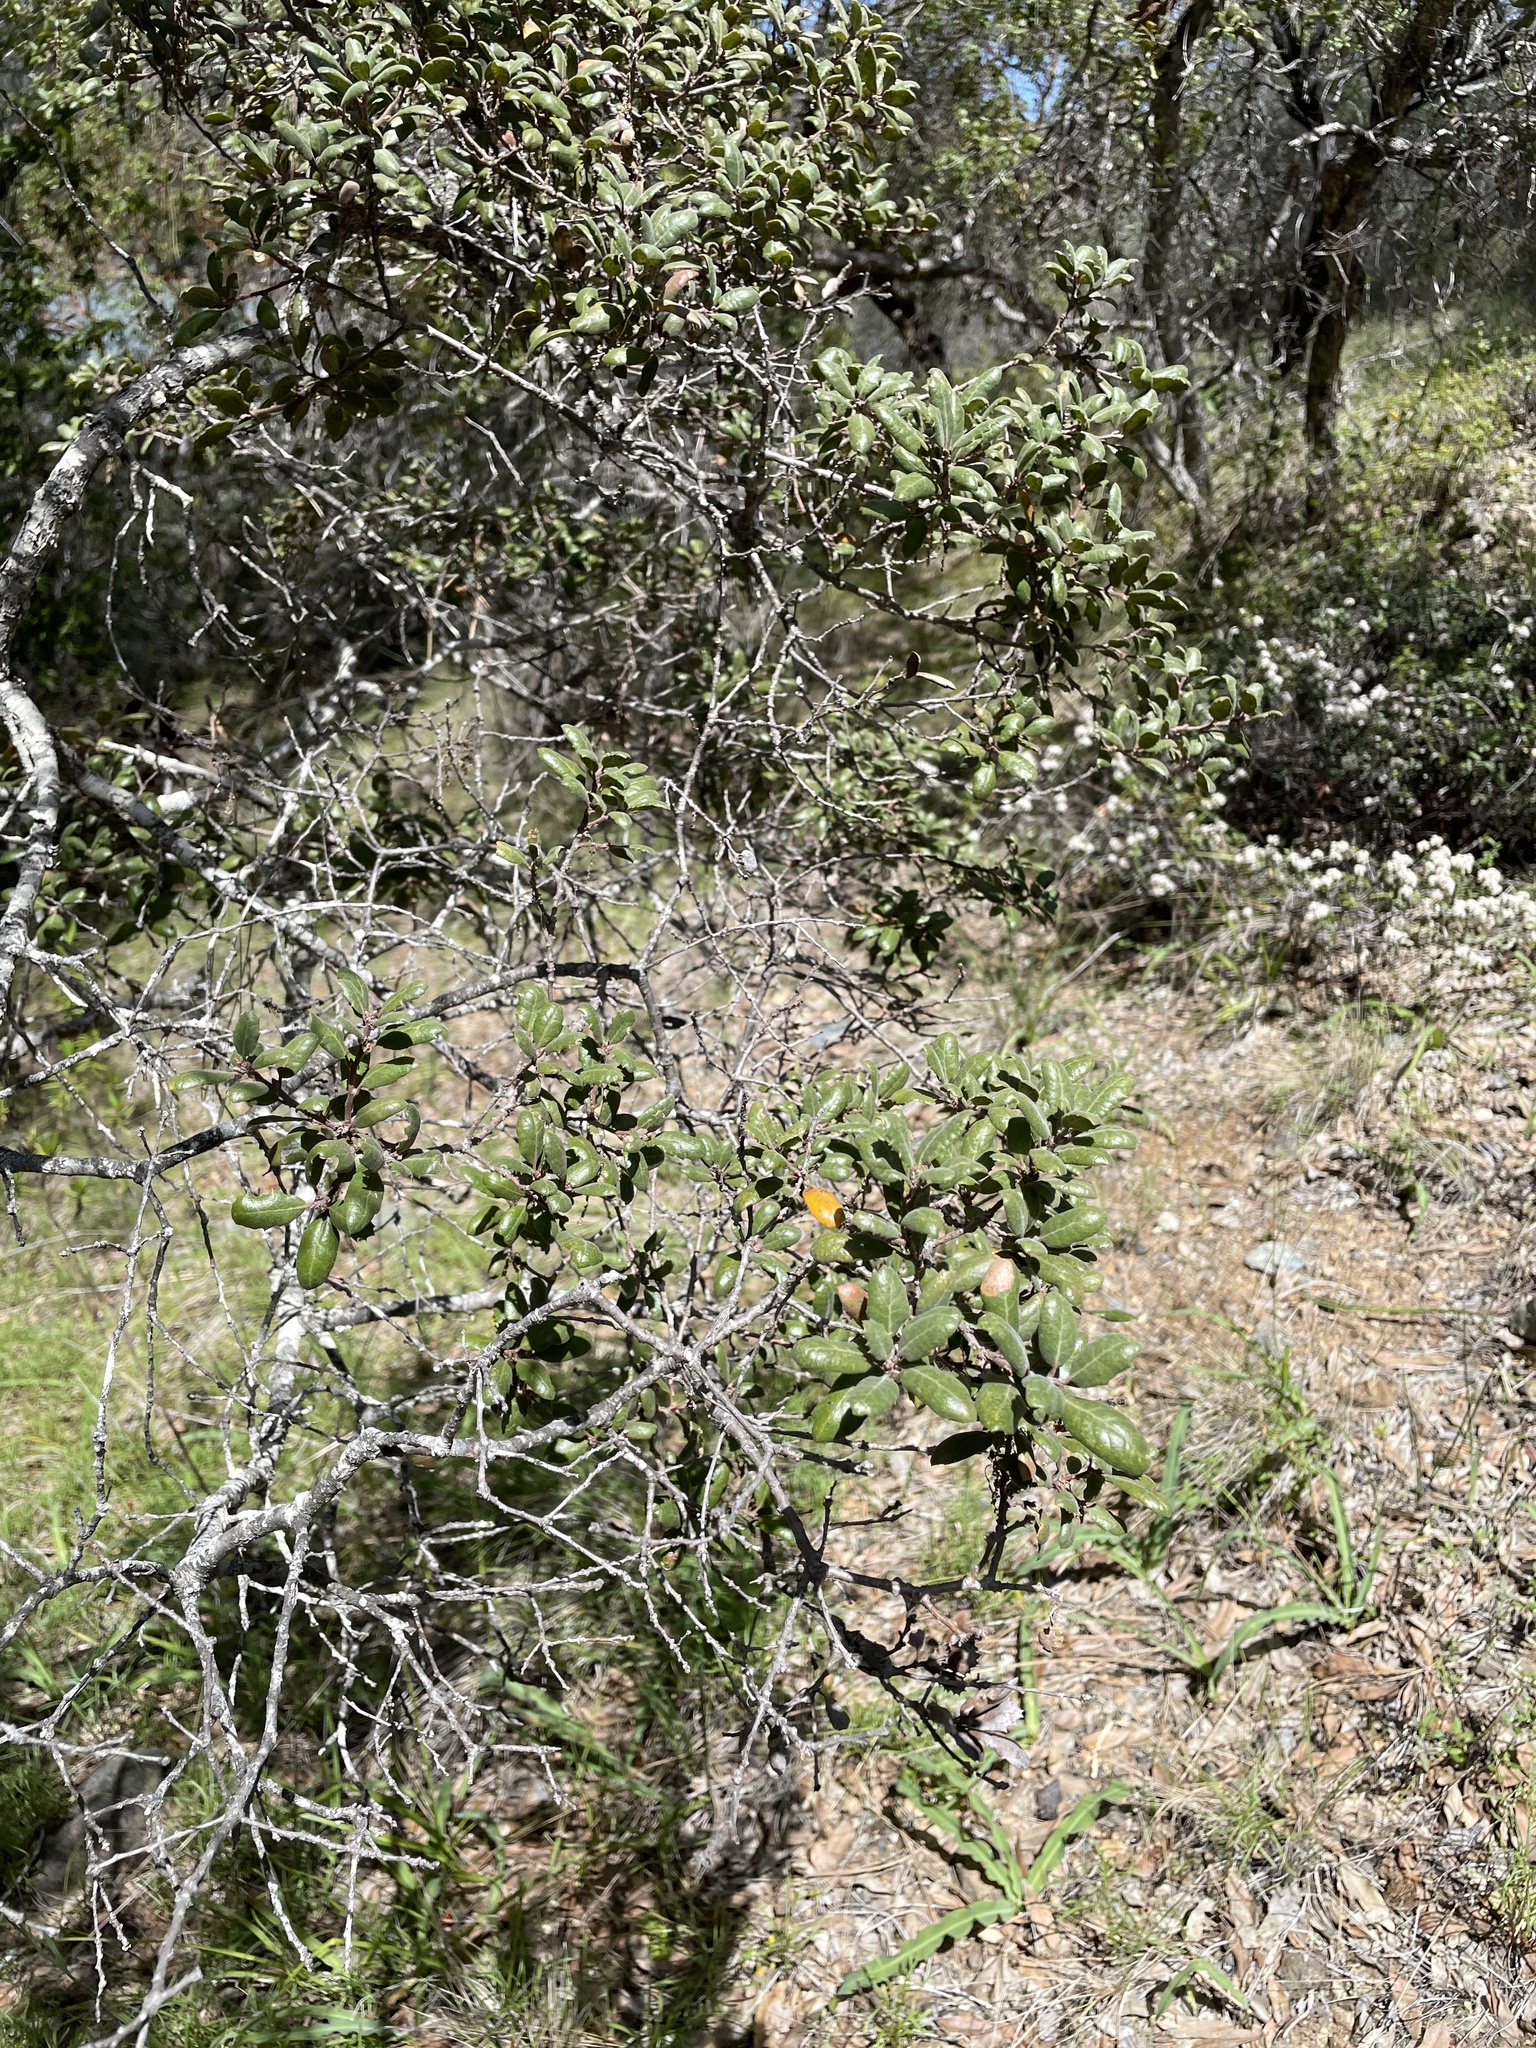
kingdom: Plantae
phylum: Tracheophyta
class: Magnoliopsida
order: Fagales
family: Fagaceae
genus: Quercus
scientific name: Quercus durata
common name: Leather oak
